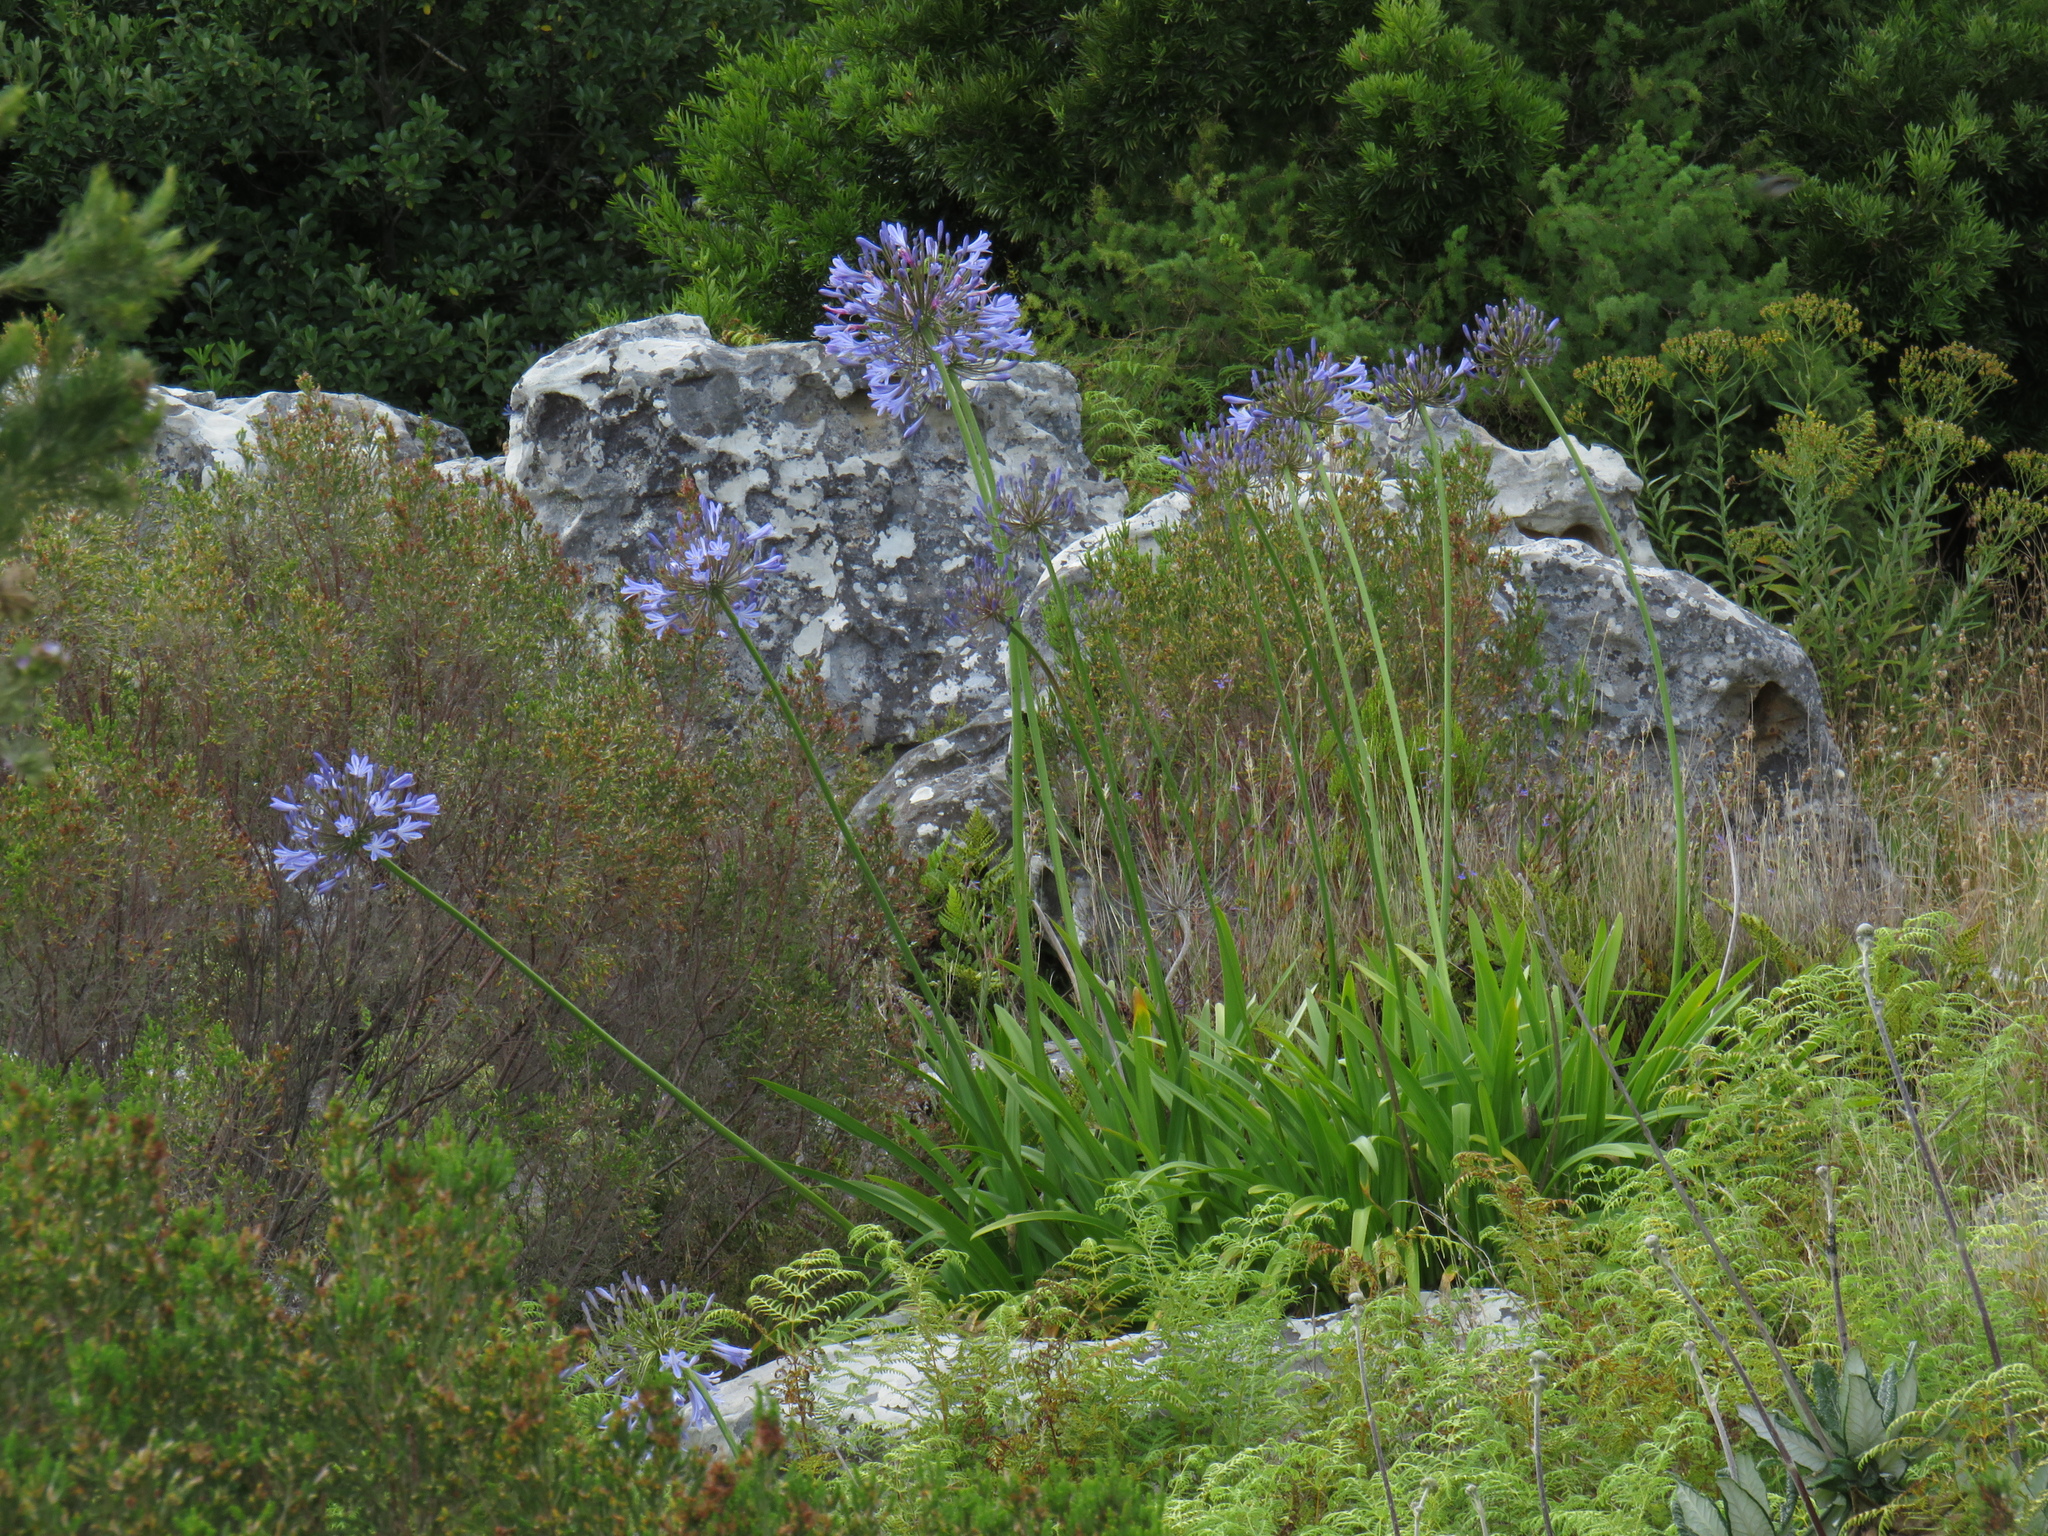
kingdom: Plantae
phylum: Tracheophyta
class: Liliopsida
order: Asparagales
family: Amaryllidaceae
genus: Agapanthus
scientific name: Agapanthus praecox
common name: African-lily
